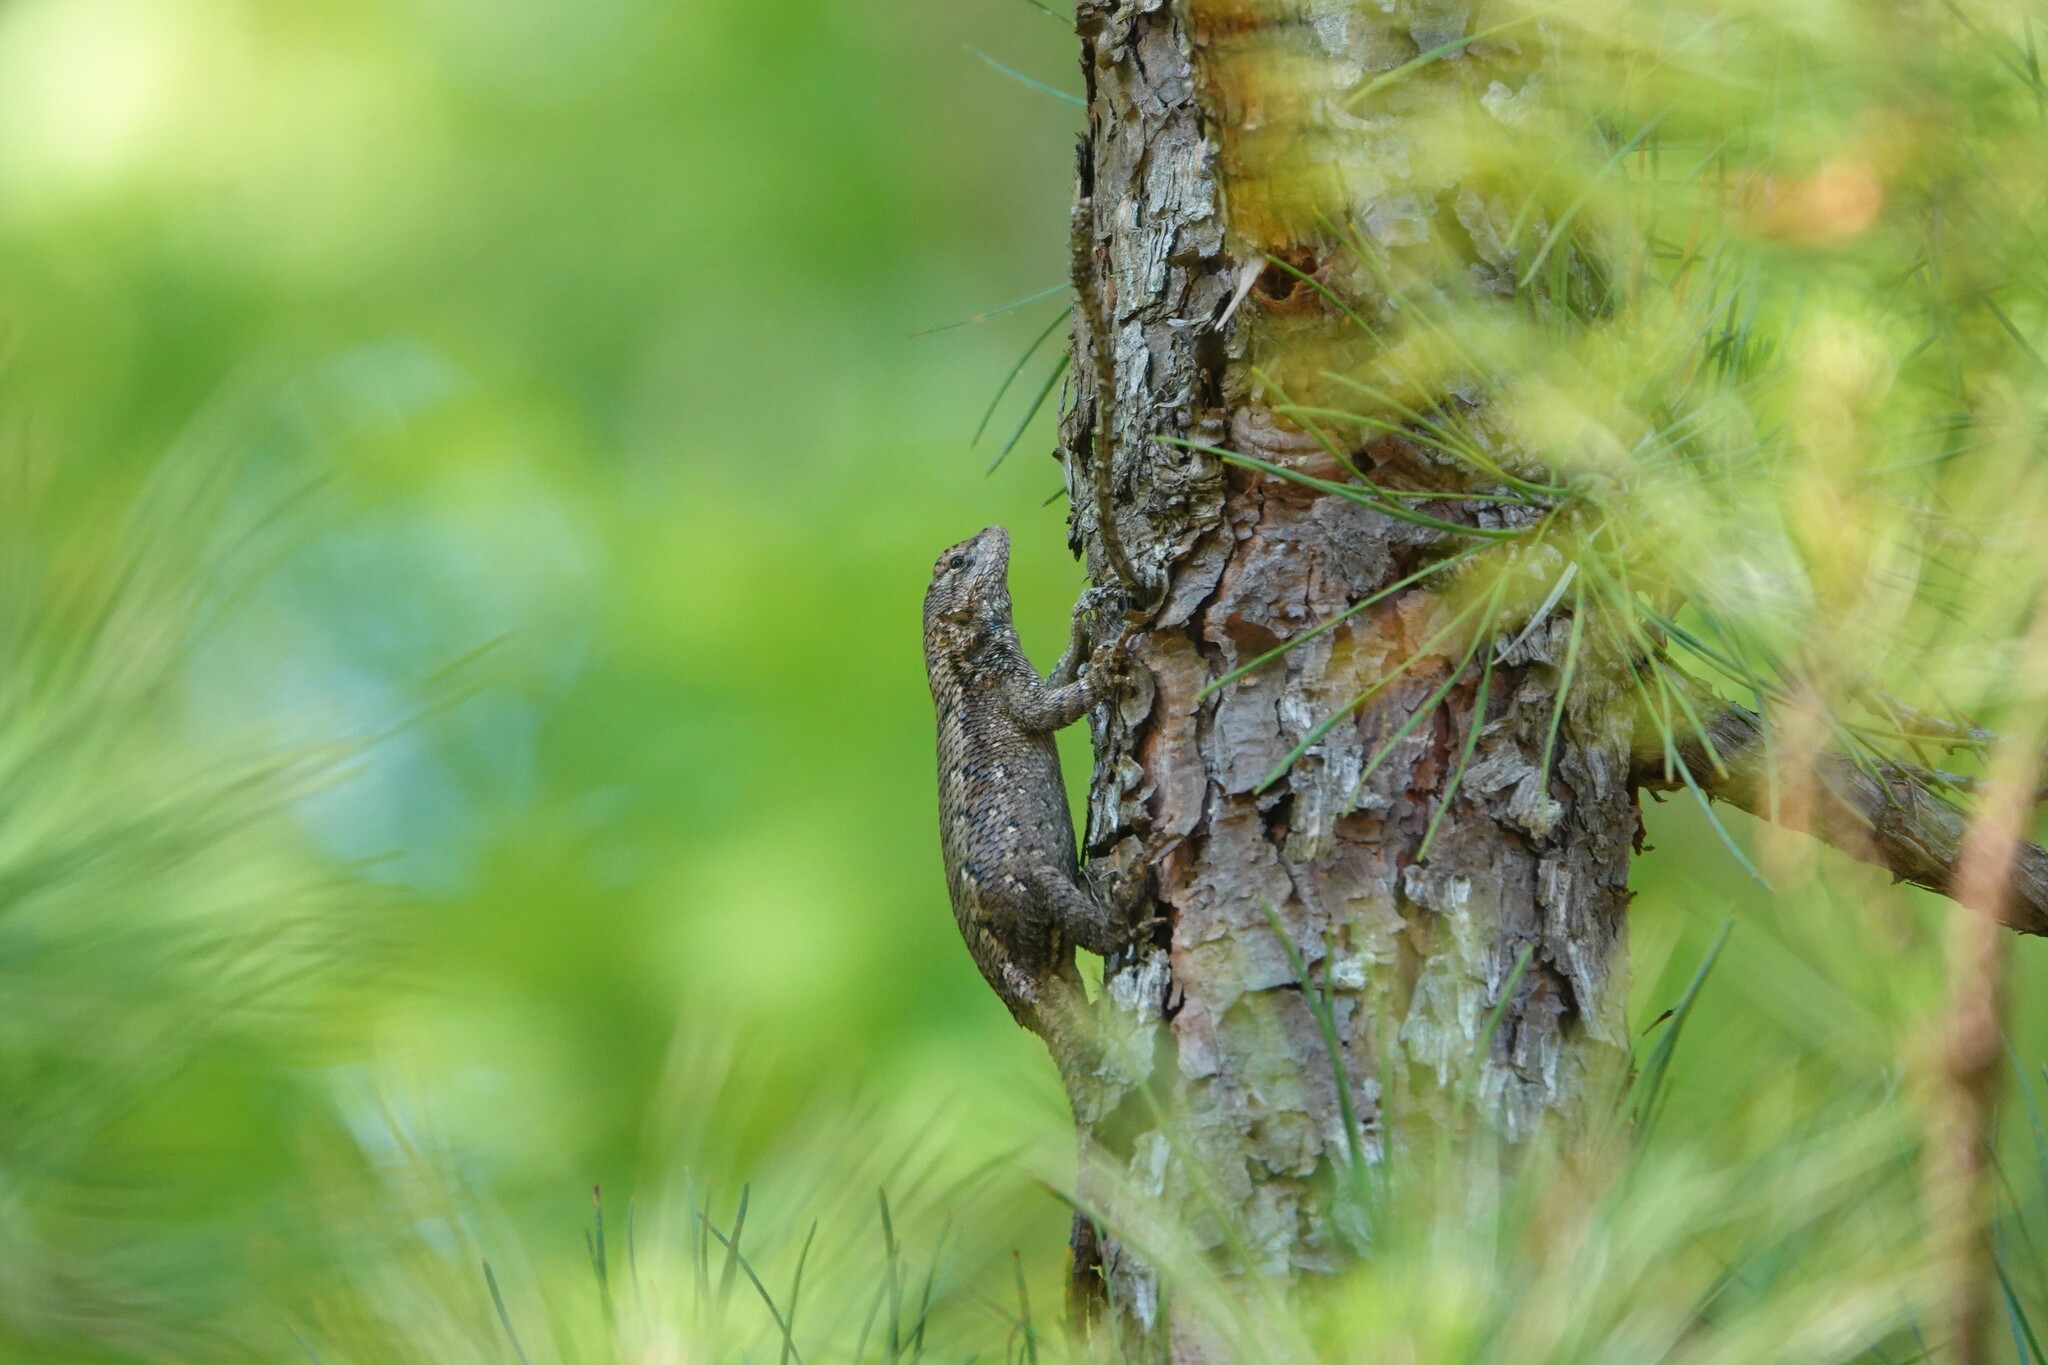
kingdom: Animalia
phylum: Chordata
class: Squamata
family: Phrynosomatidae
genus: Sceloporus
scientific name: Sceloporus undulatus
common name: Eastern fence lizard
